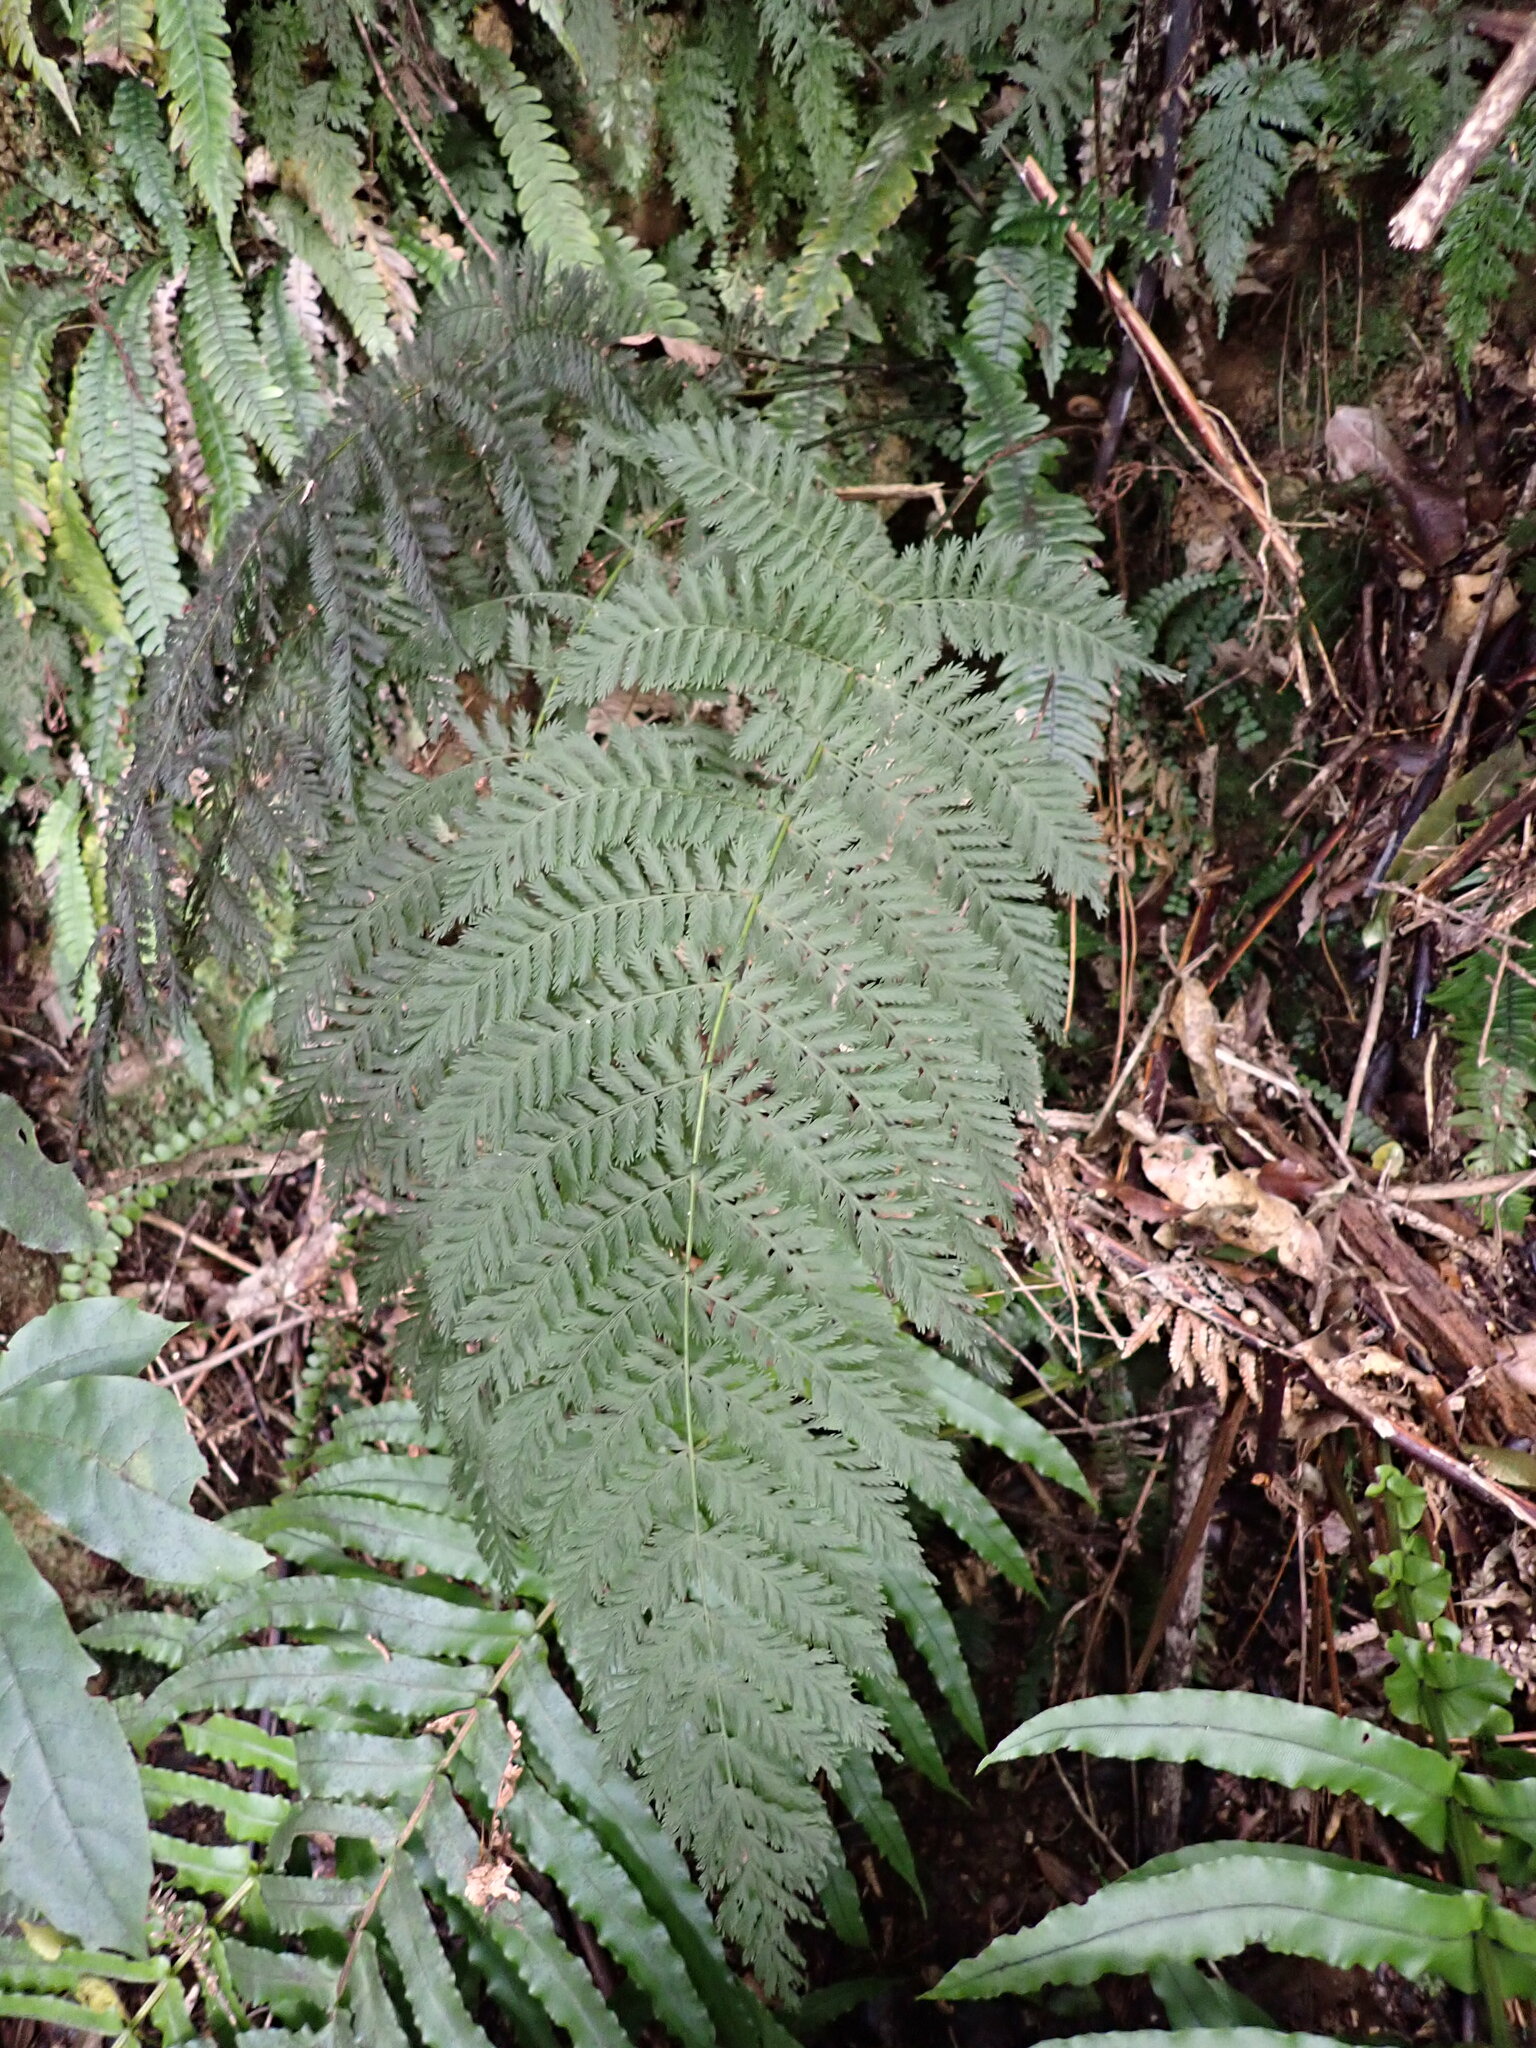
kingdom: Plantae
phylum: Tracheophyta
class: Polypodiopsida
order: Osmundales
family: Osmundaceae
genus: Leptopteris
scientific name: Leptopteris hymenophylloides
